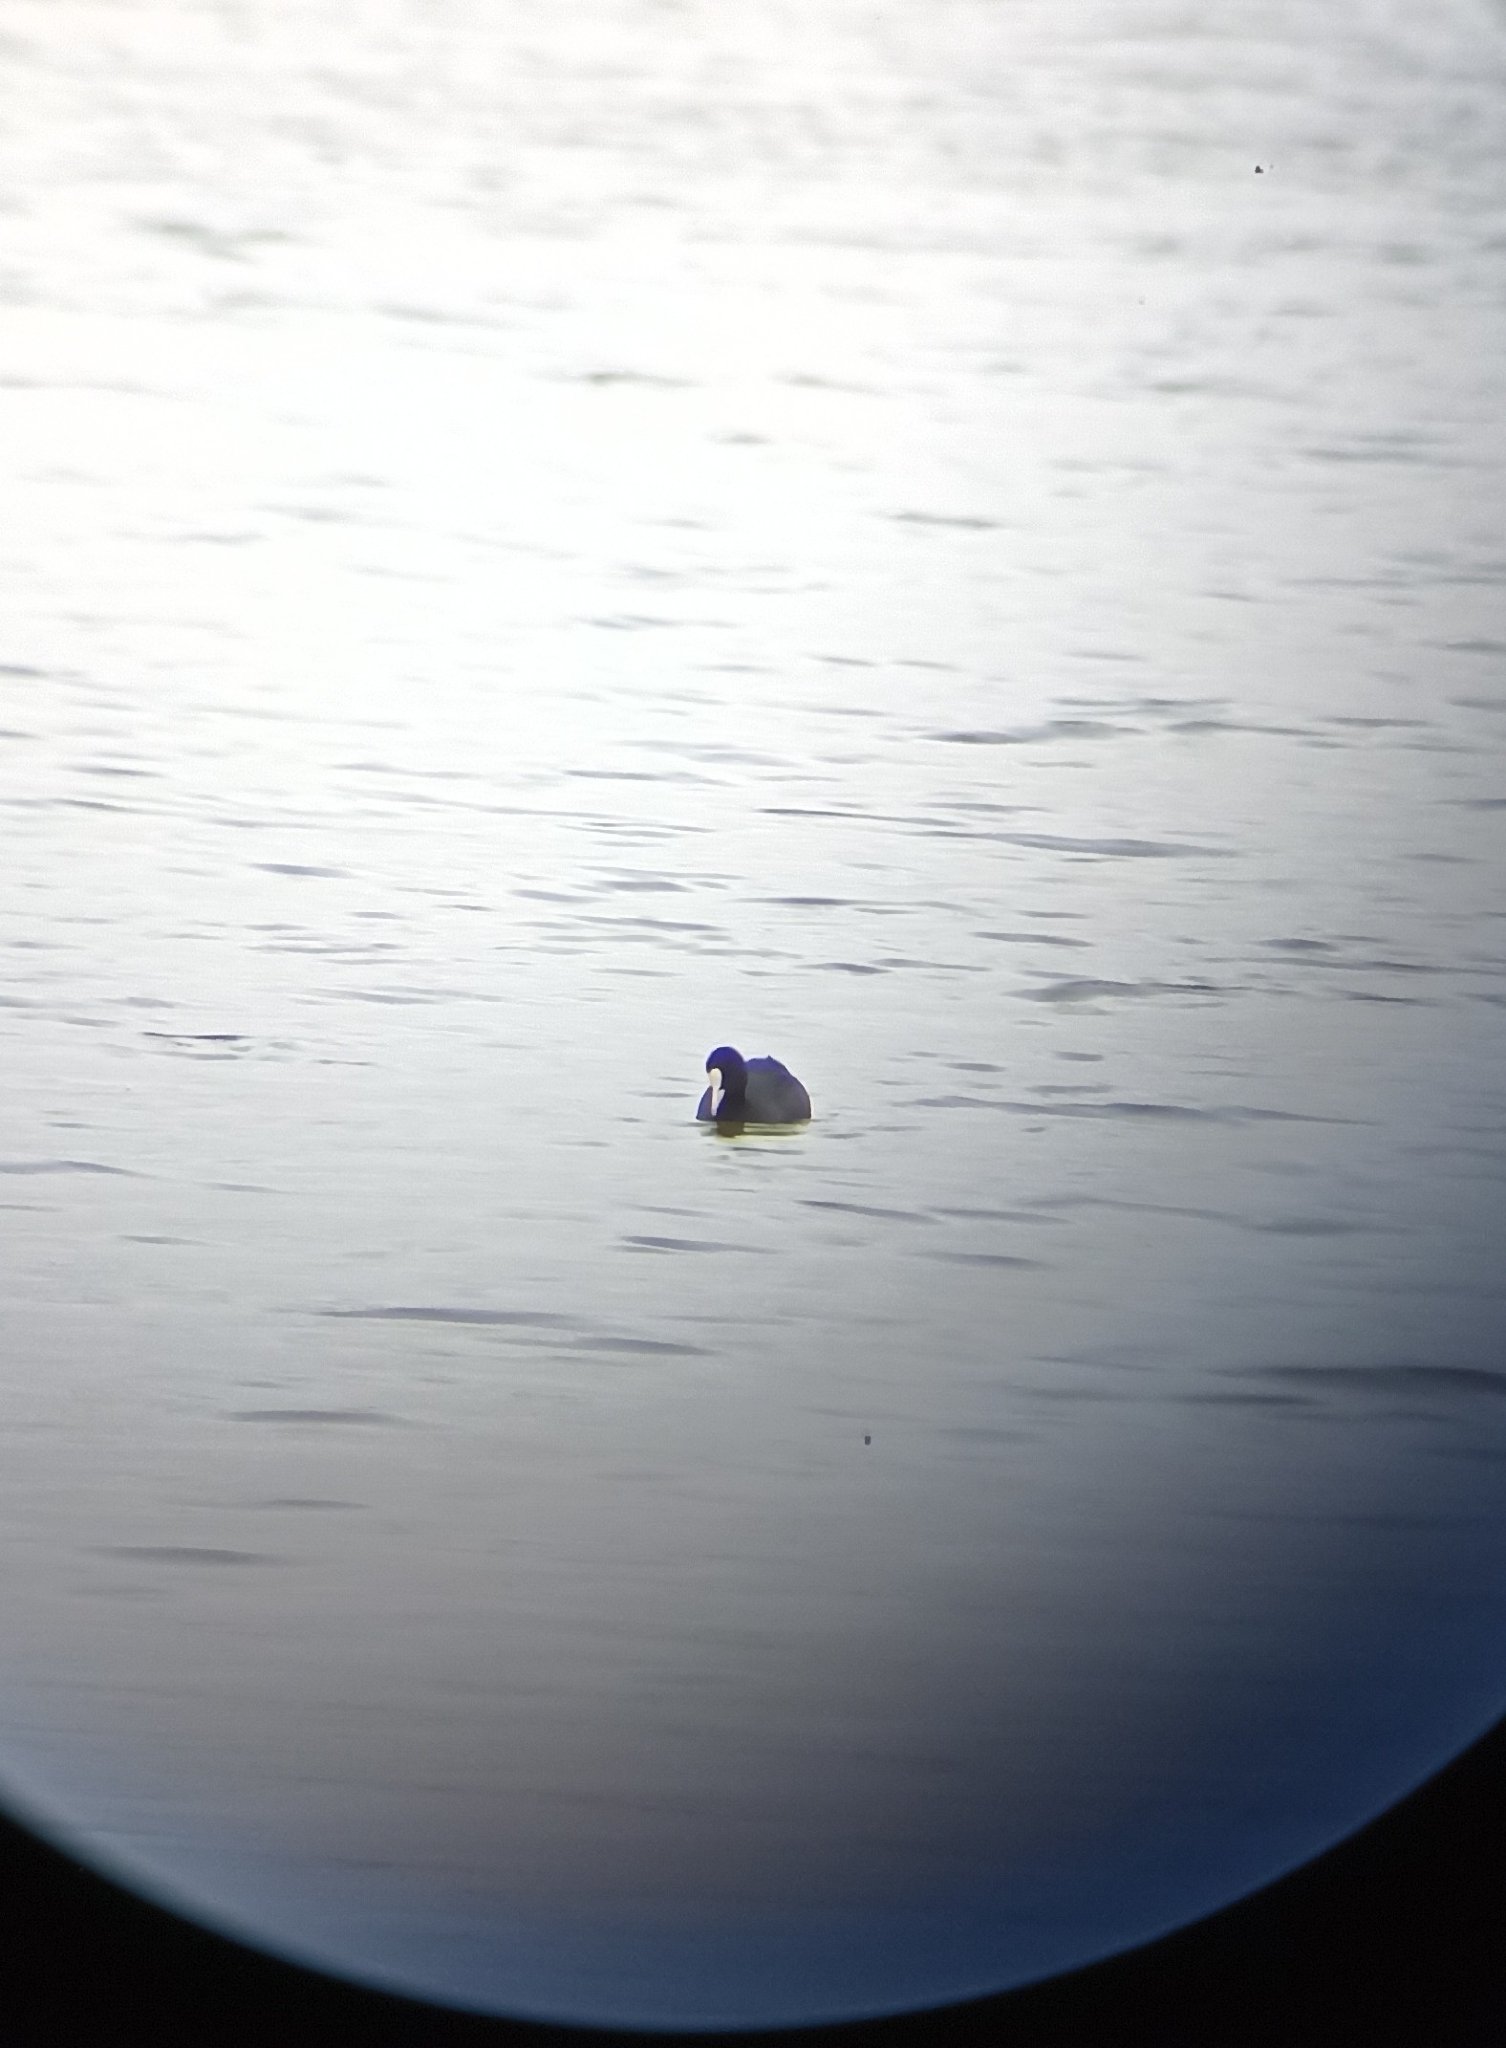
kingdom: Animalia
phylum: Chordata
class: Aves
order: Gruiformes
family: Rallidae
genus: Fulica
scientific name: Fulica atra
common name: Eurasian coot
